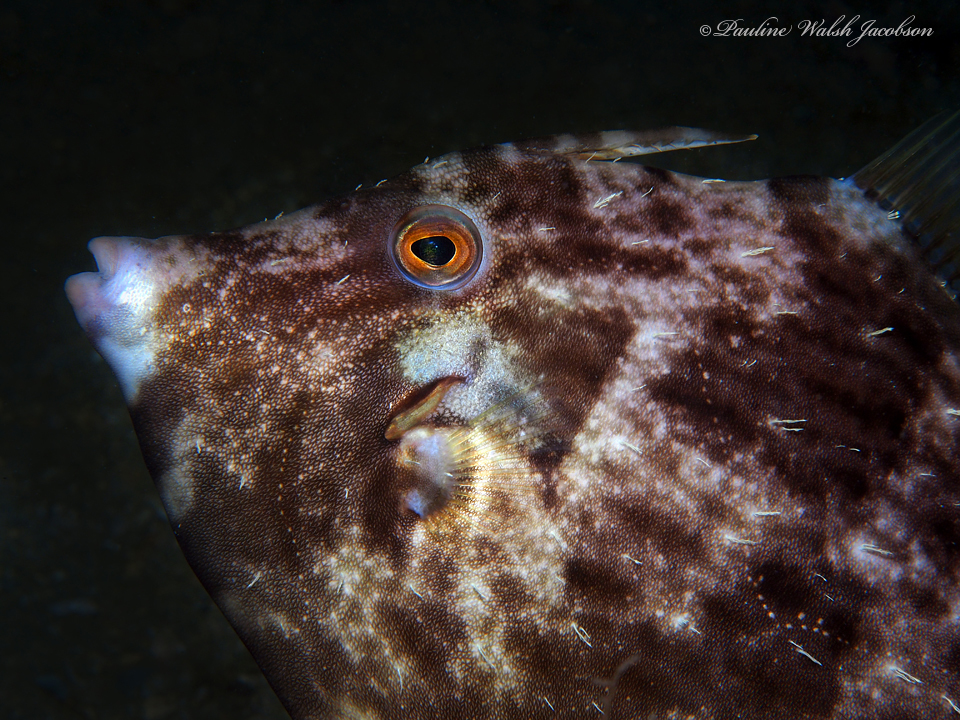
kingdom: Animalia
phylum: Chordata
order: Tetraodontiformes
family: Monacanthidae
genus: Stephanolepis
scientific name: Stephanolepis hispidus
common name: Planehead filefish
